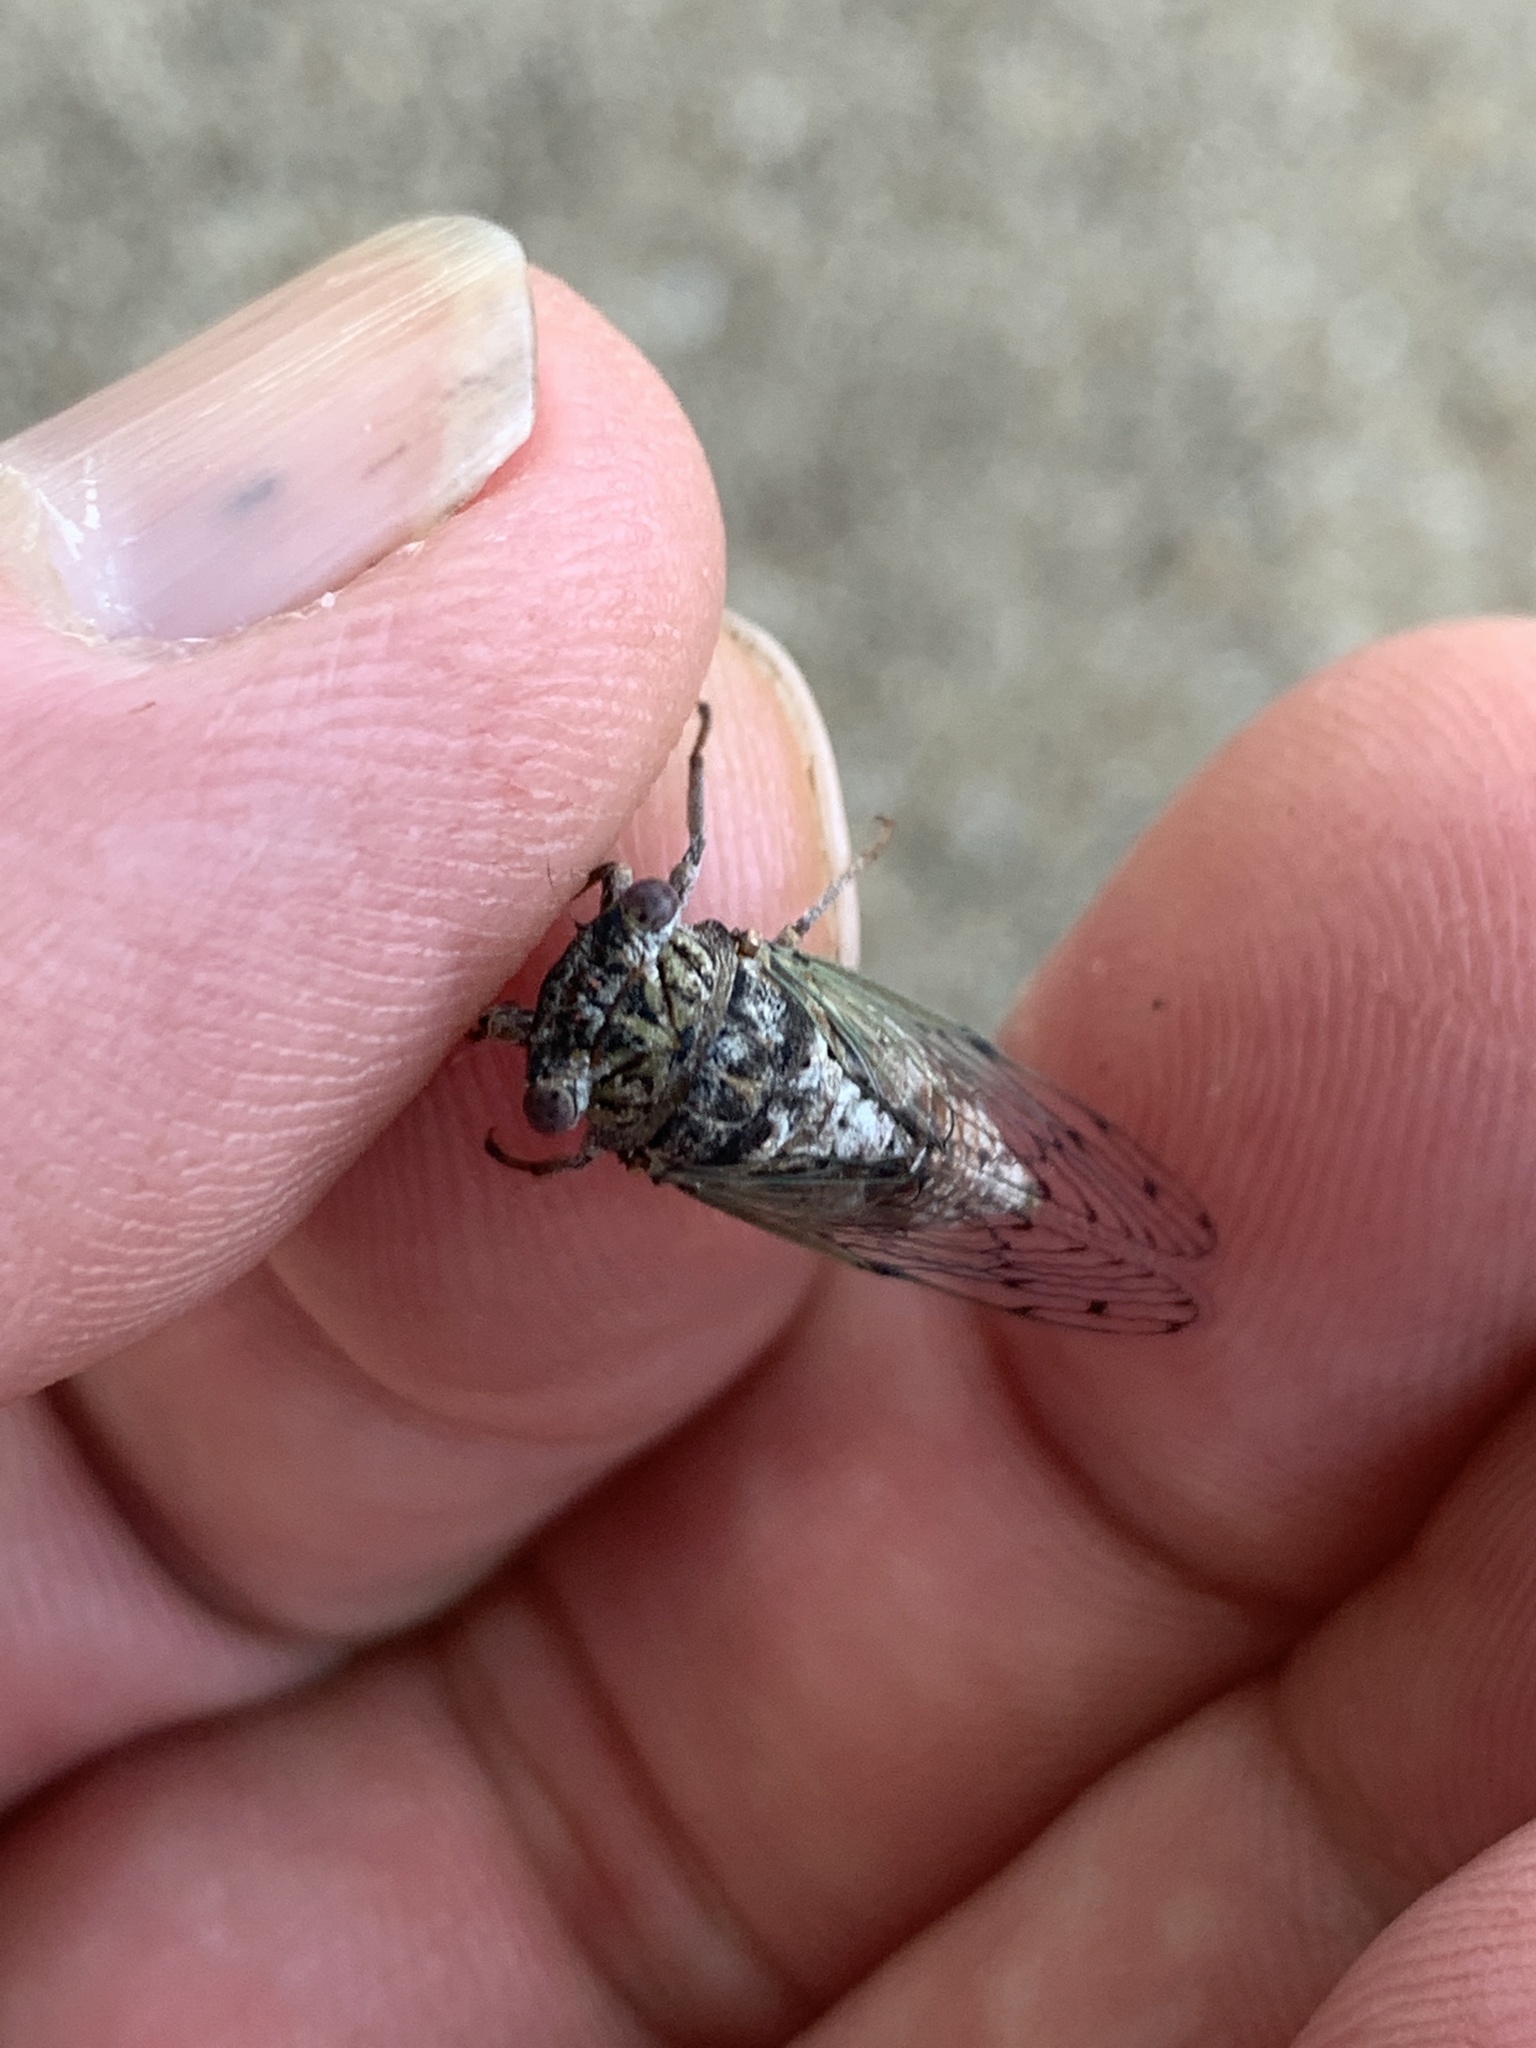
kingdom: Animalia
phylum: Arthropoda
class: Insecta
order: Hemiptera
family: Cicadidae
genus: Pacarina
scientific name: Pacarina puella
